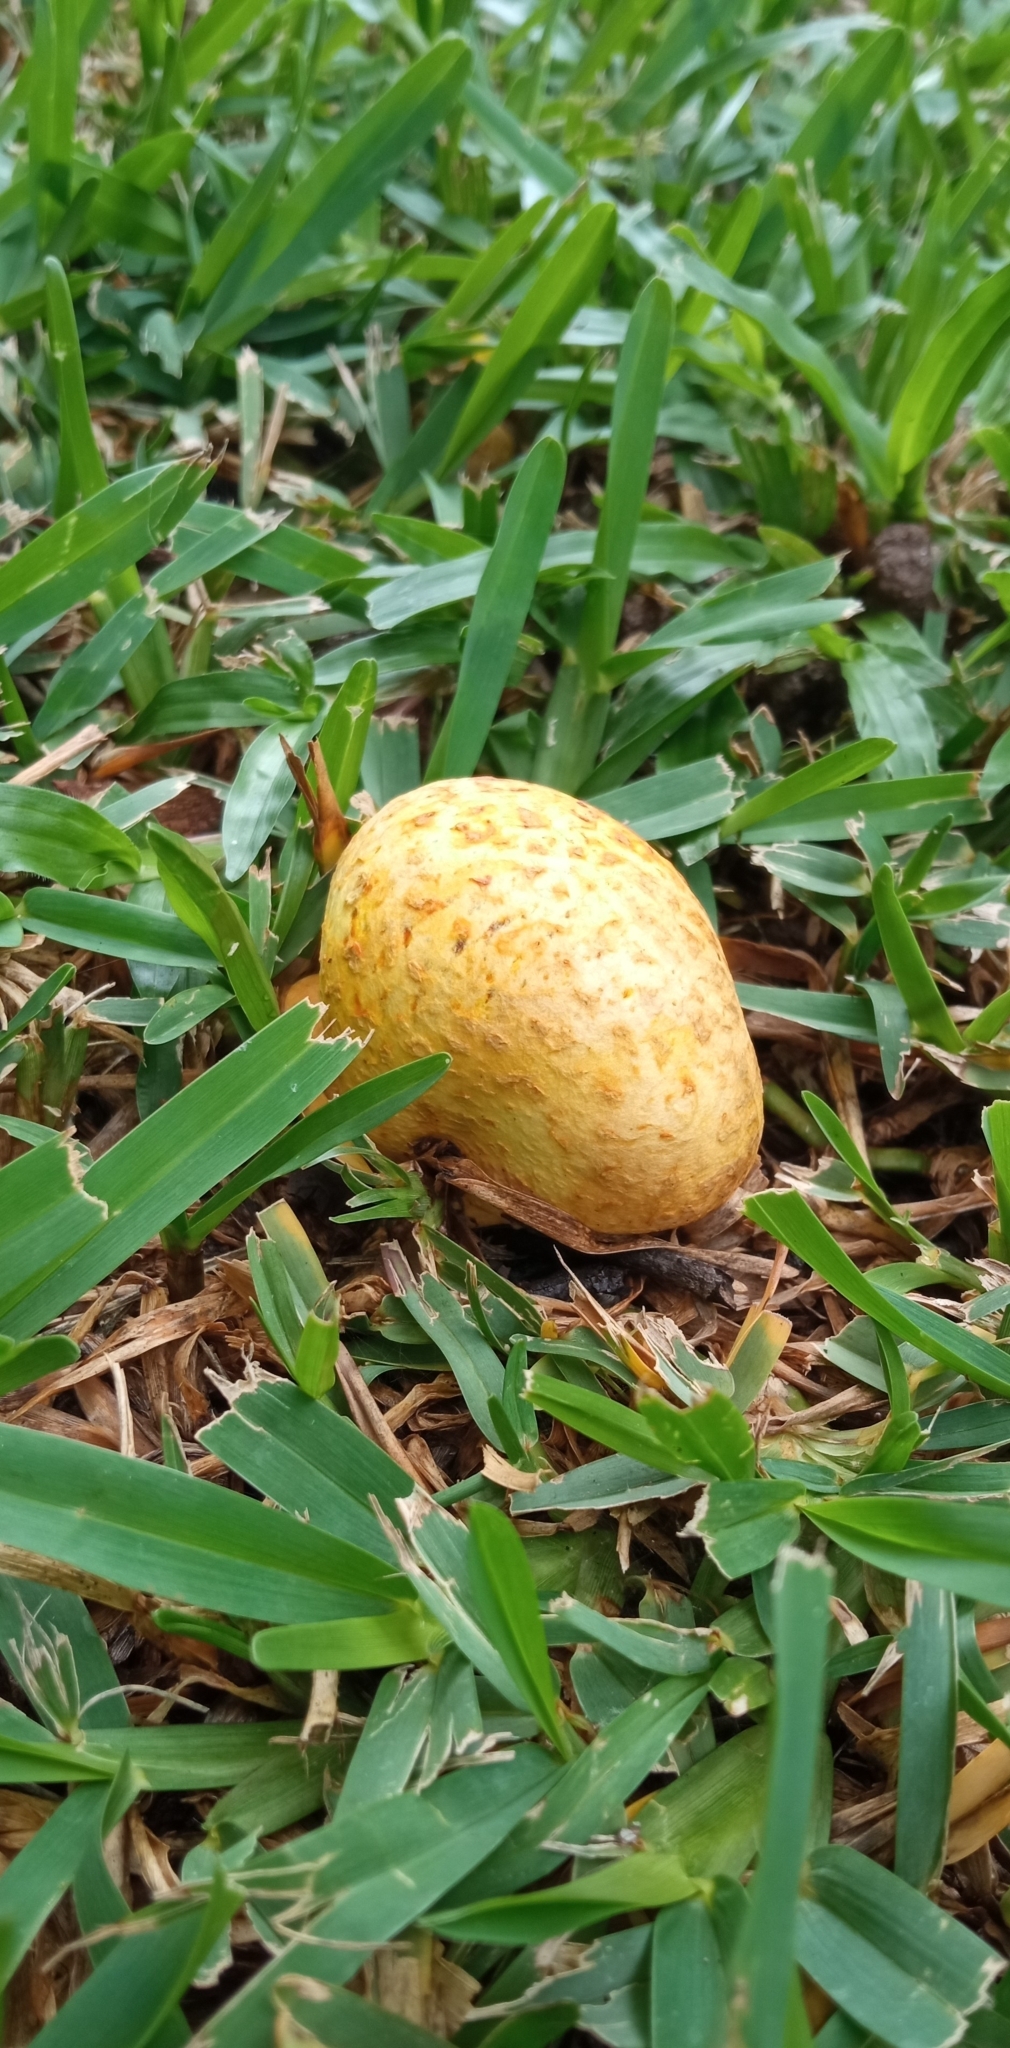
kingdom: Fungi
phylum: Basidiomycota
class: Agaricomycetes
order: Boletales
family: Sclerodermataceae
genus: Scleroderma
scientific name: Scleroderma cepa
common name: Onion earthball
